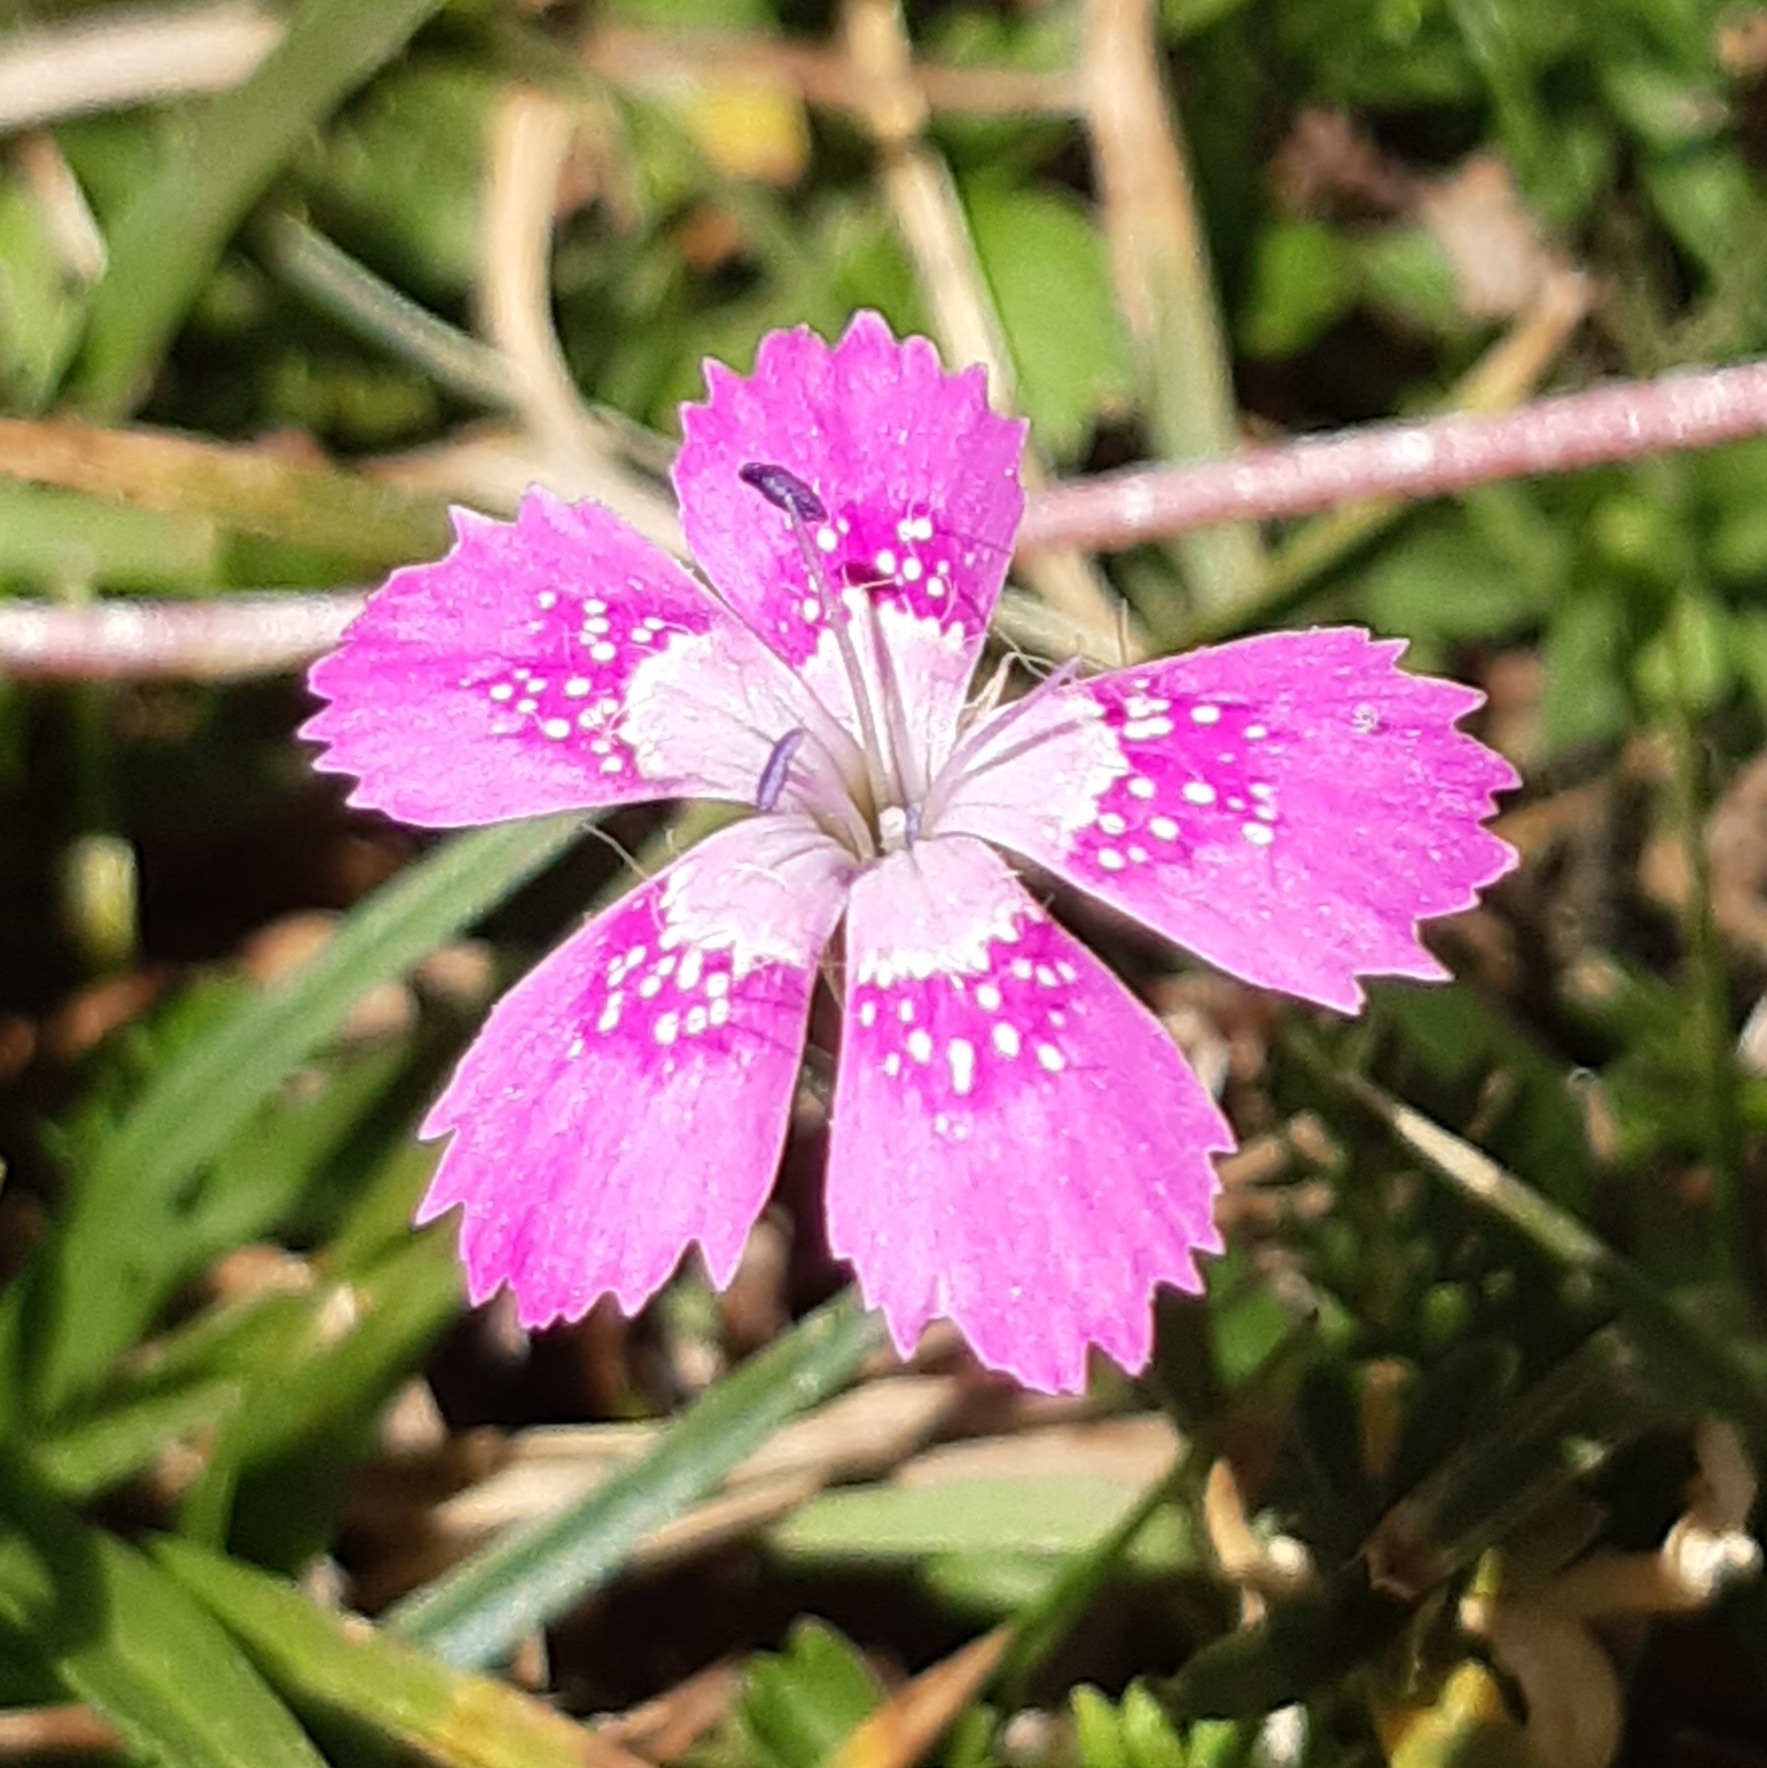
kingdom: Plantae
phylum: Tracheophyta
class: Magnoliopsida
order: Caryophyllales
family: Caryophyllaceae
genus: Dianthus
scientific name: Dianthus deltoides
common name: Maiden pink
